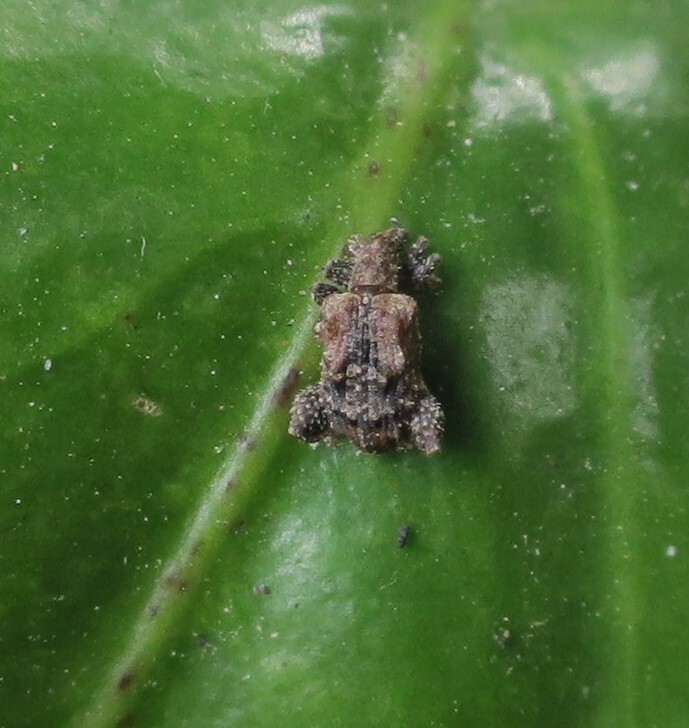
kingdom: Animalia
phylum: Arthropoda
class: Insecta
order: Coleoptera
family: Curculionidae
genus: Pactola
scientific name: Pactola variabilis
